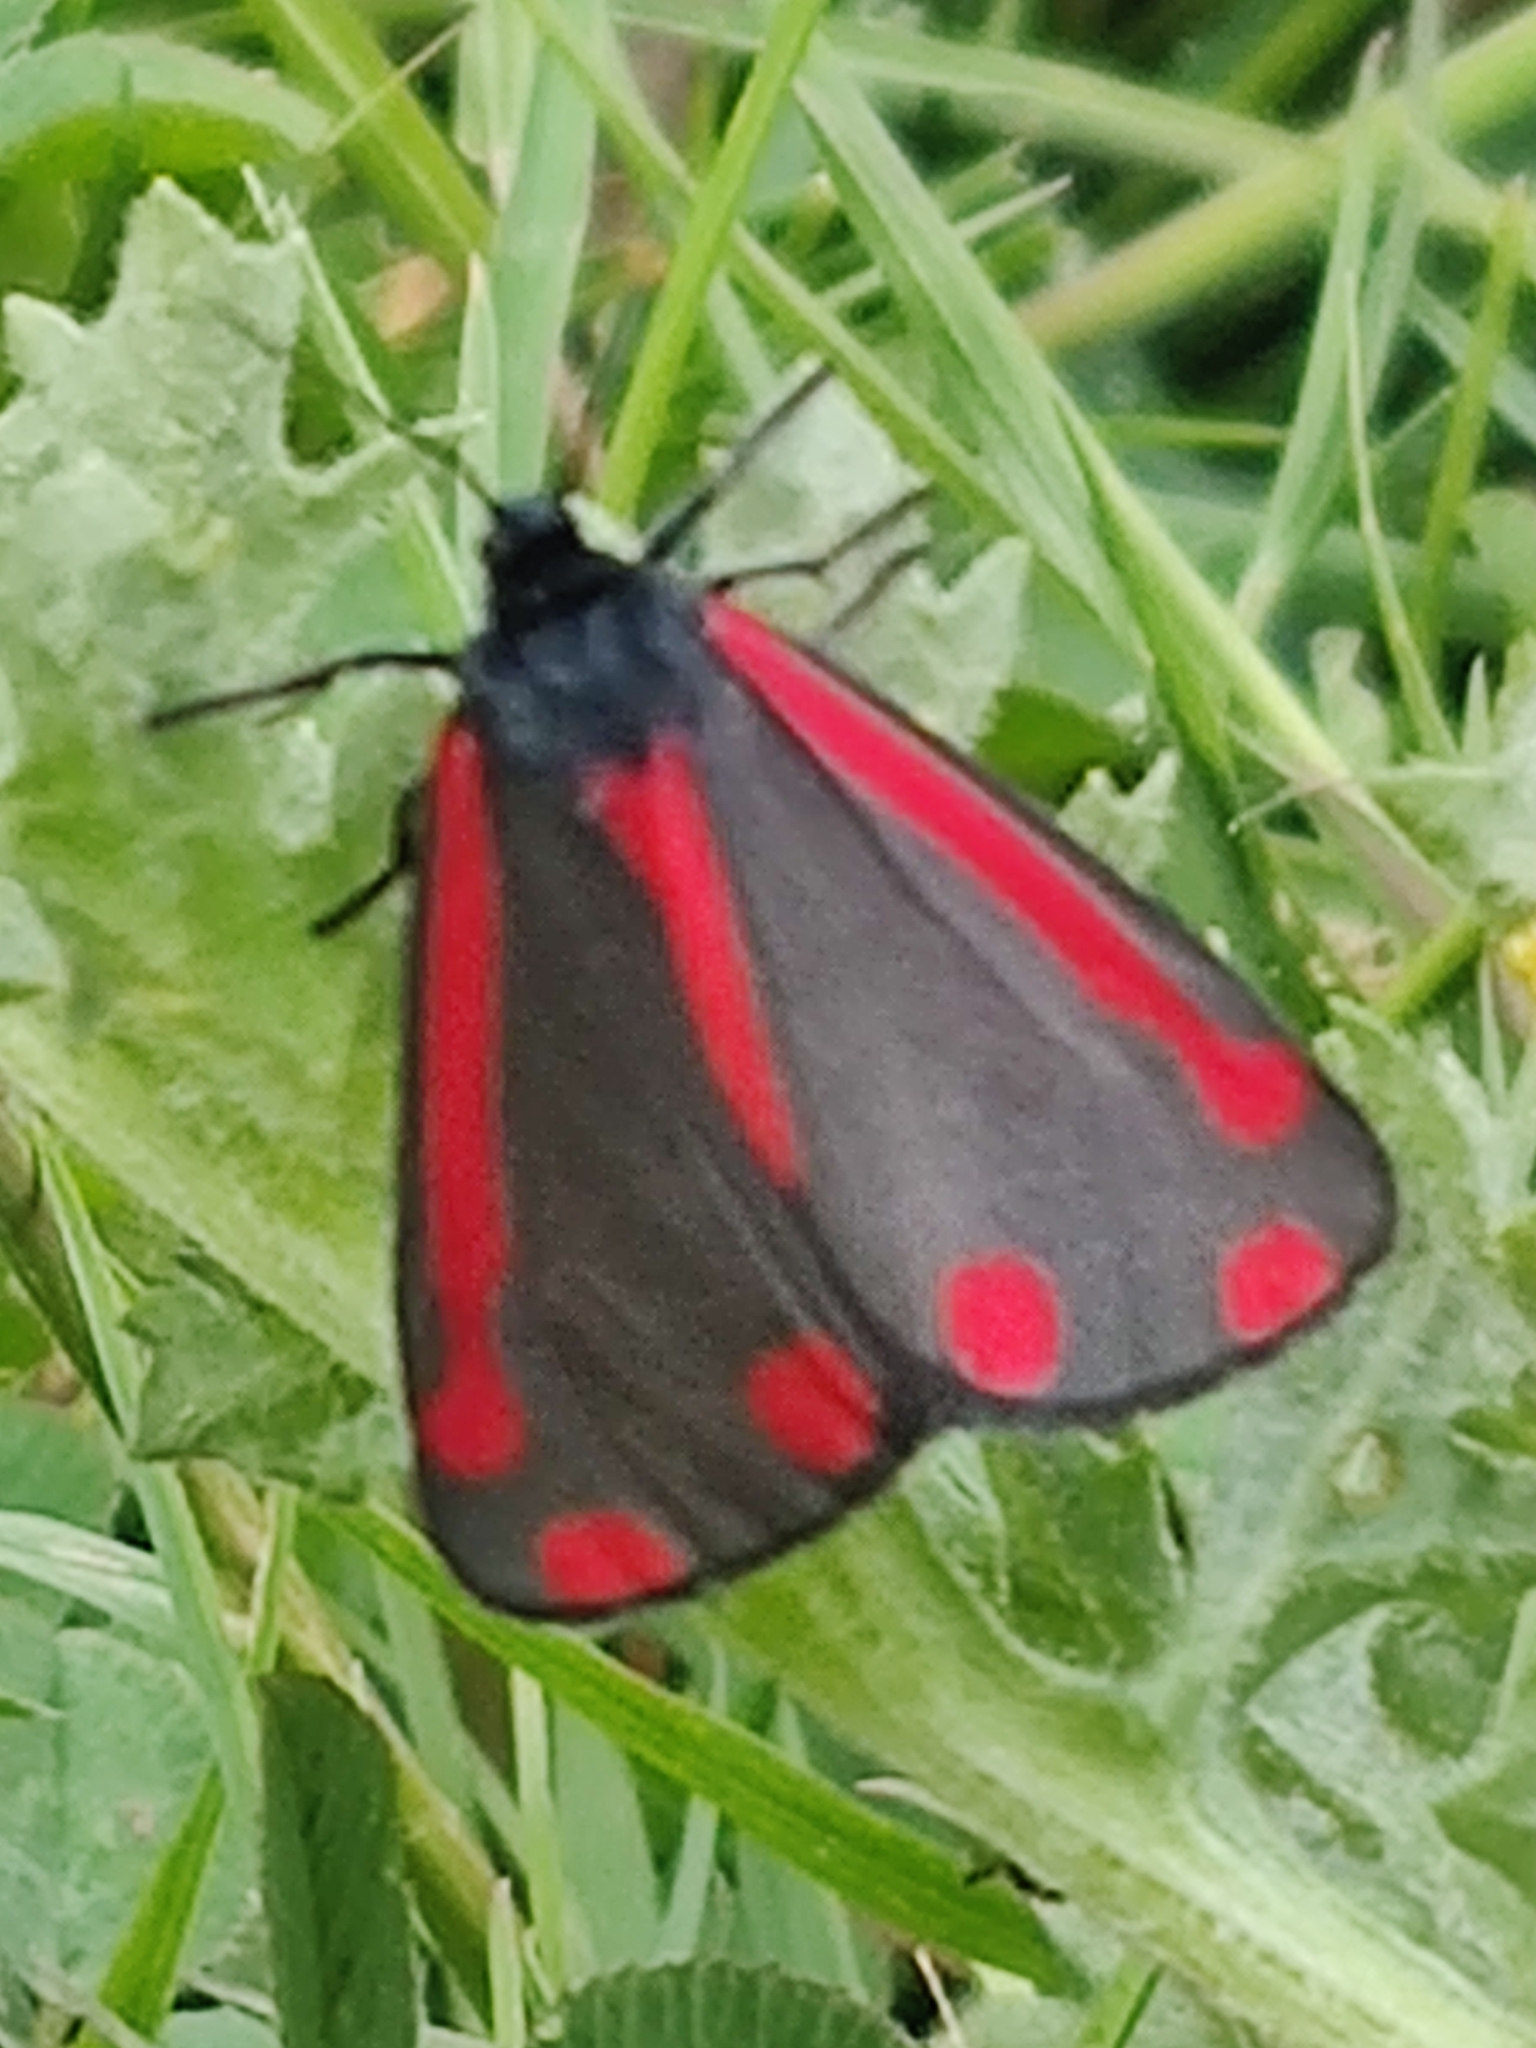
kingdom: Animalia
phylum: Arthropoda
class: Insecta
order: Lepidoptera
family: Erebidae
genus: Tyria
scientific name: Tyria jacobaeae
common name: Cinnabar
